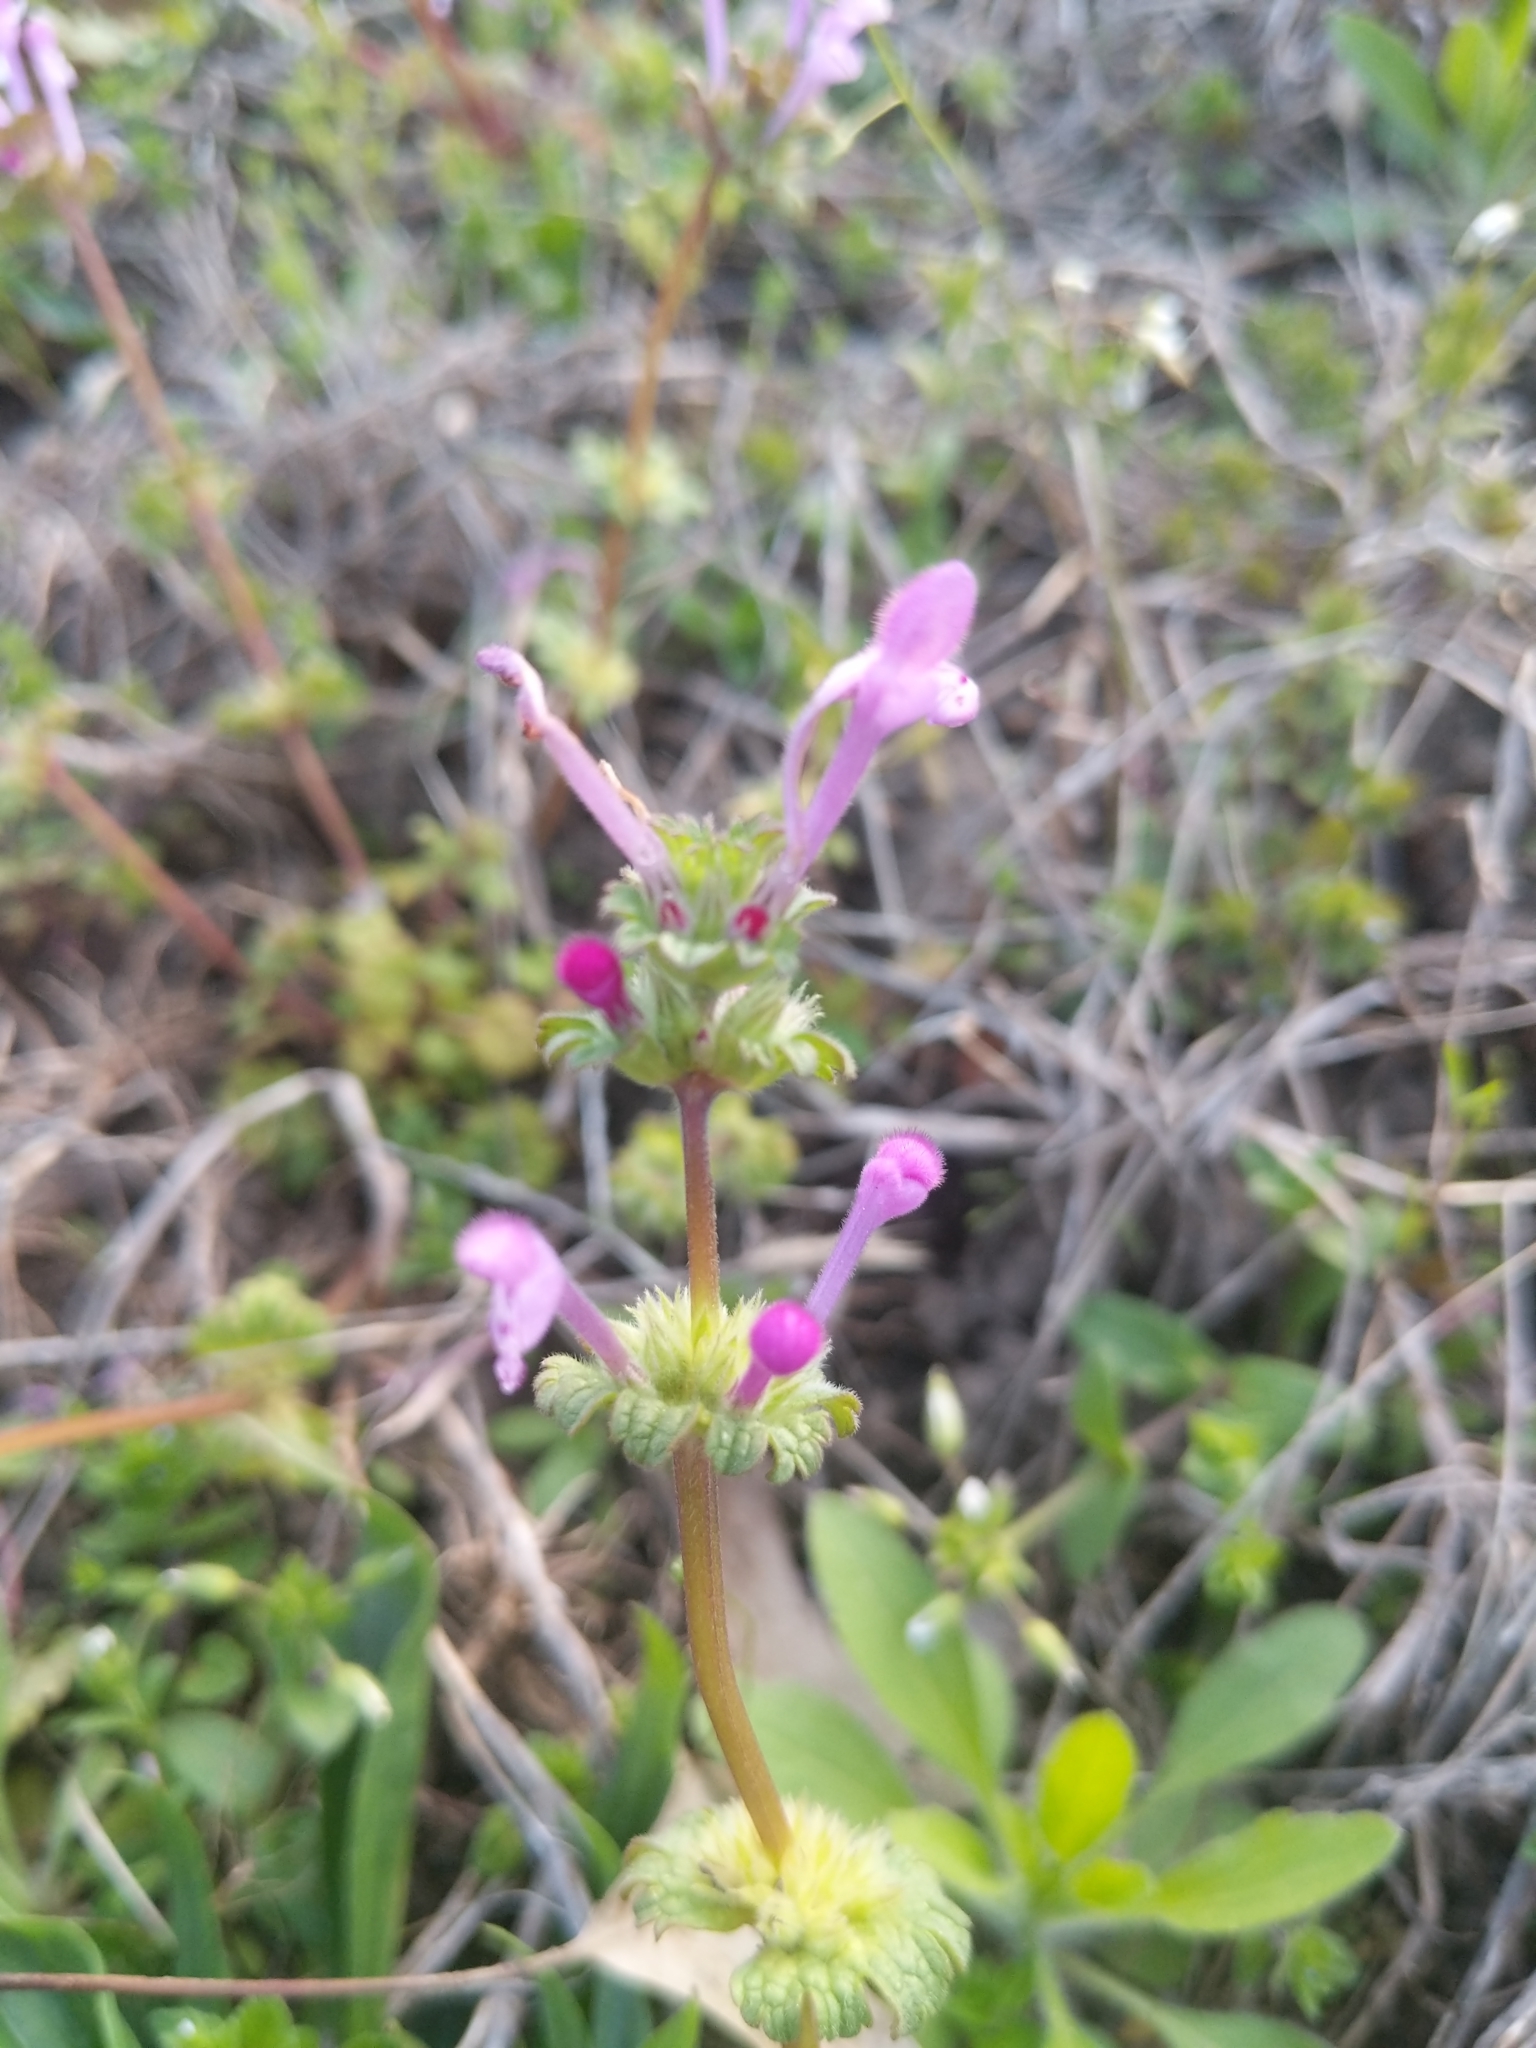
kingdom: Plantae
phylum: Tracheophyta
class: Magnoliopsida
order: Lamiales
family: Lamiaceae
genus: Lamium
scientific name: Lamium amplexicaule
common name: Henbit dead-nettle
